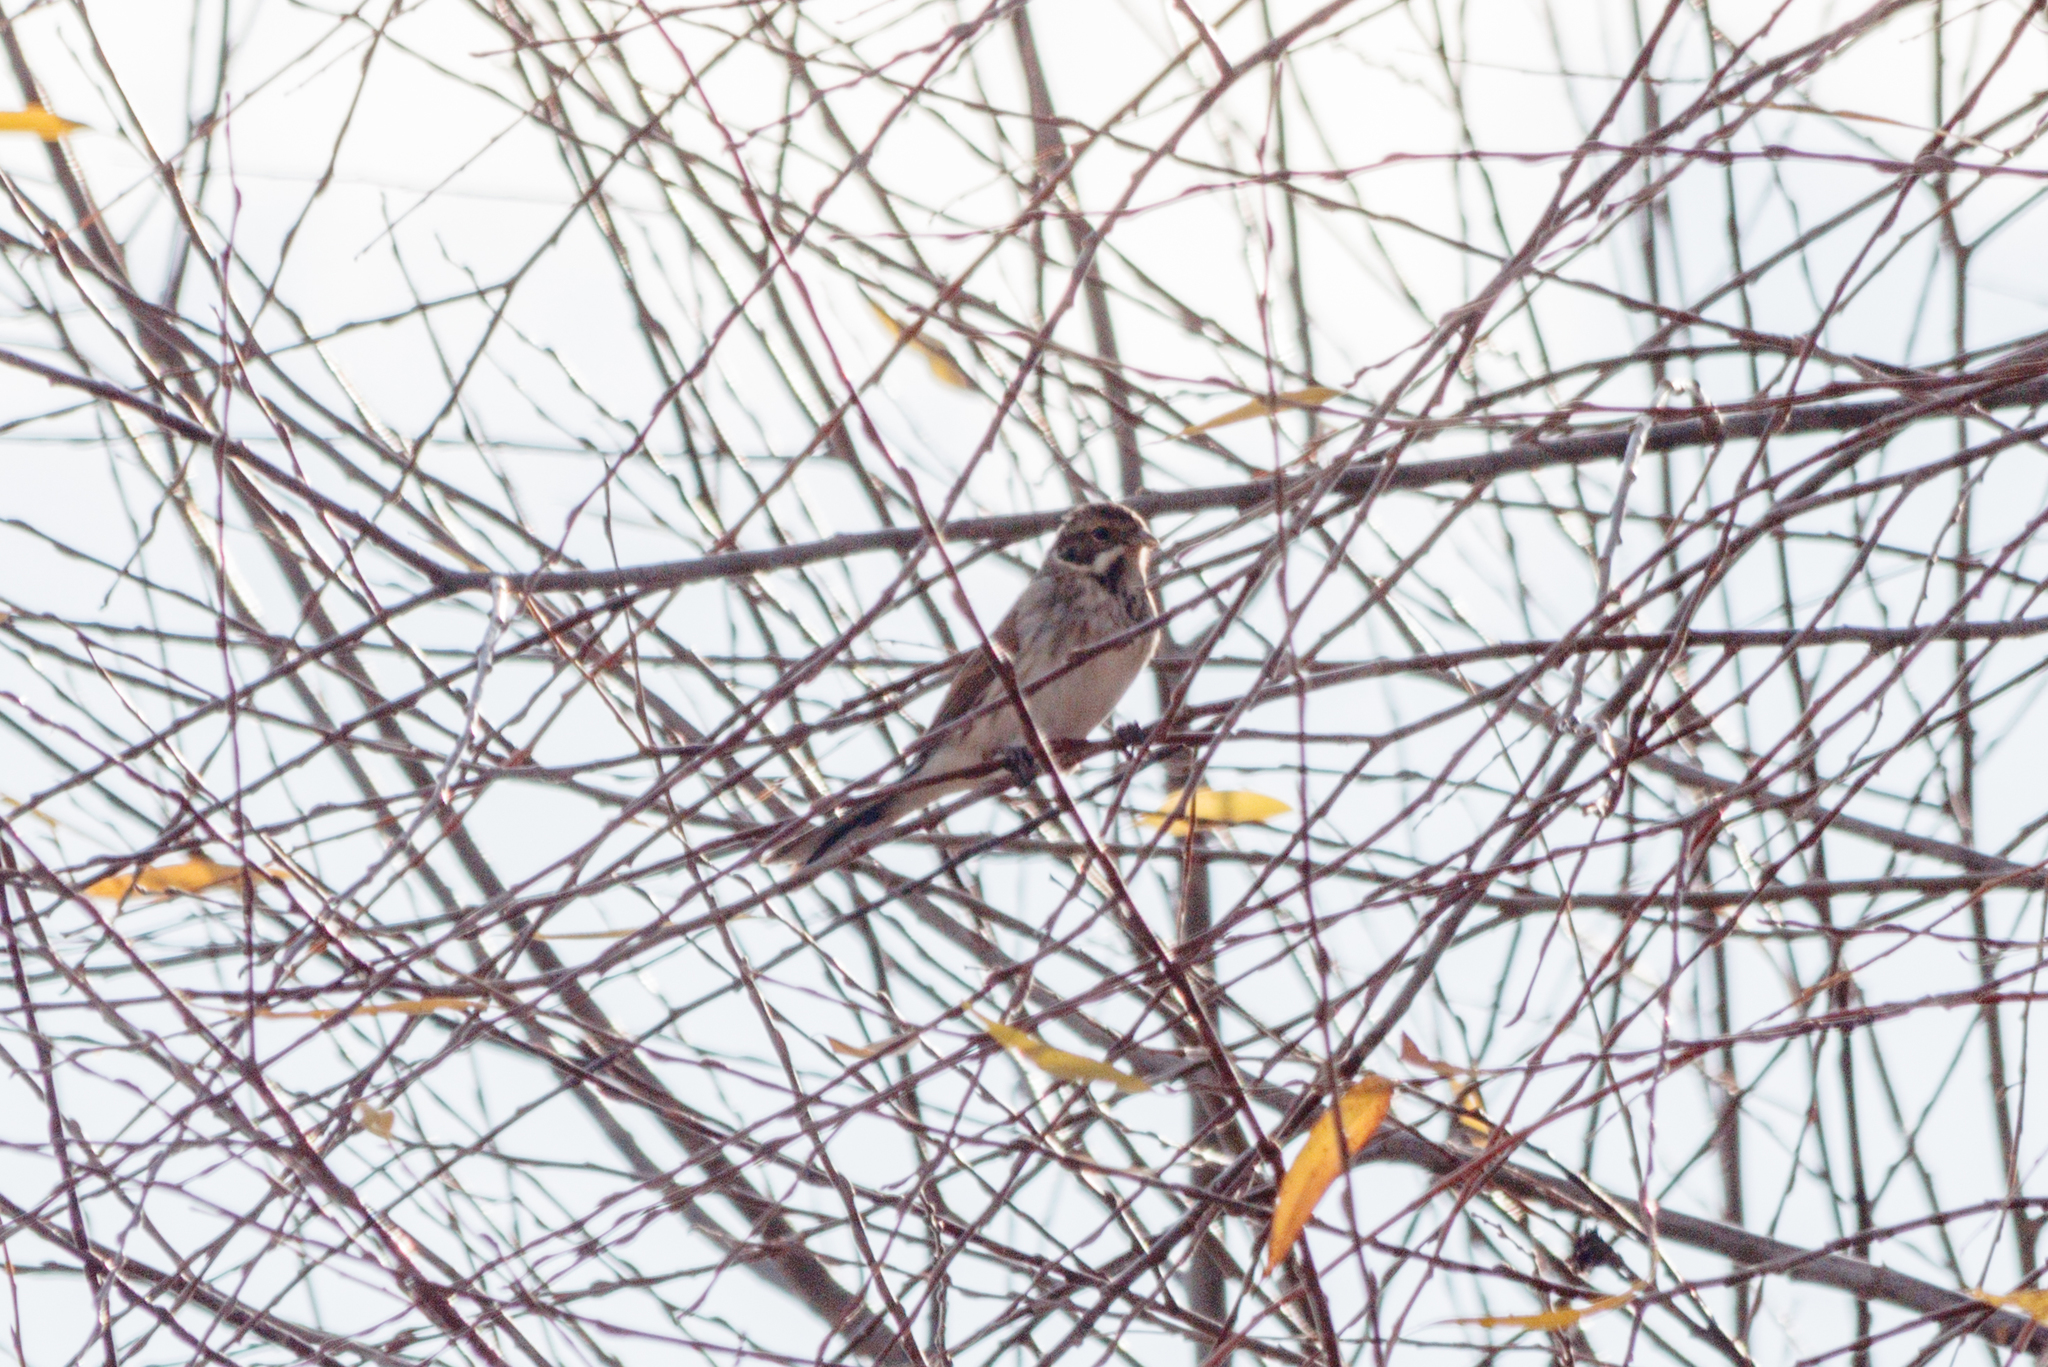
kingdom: Animalia
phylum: Chordata
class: Aves
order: Passeriformes
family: Emberizidae
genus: Emberiza
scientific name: Emberiza schoeniclus
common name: Reed bunting
